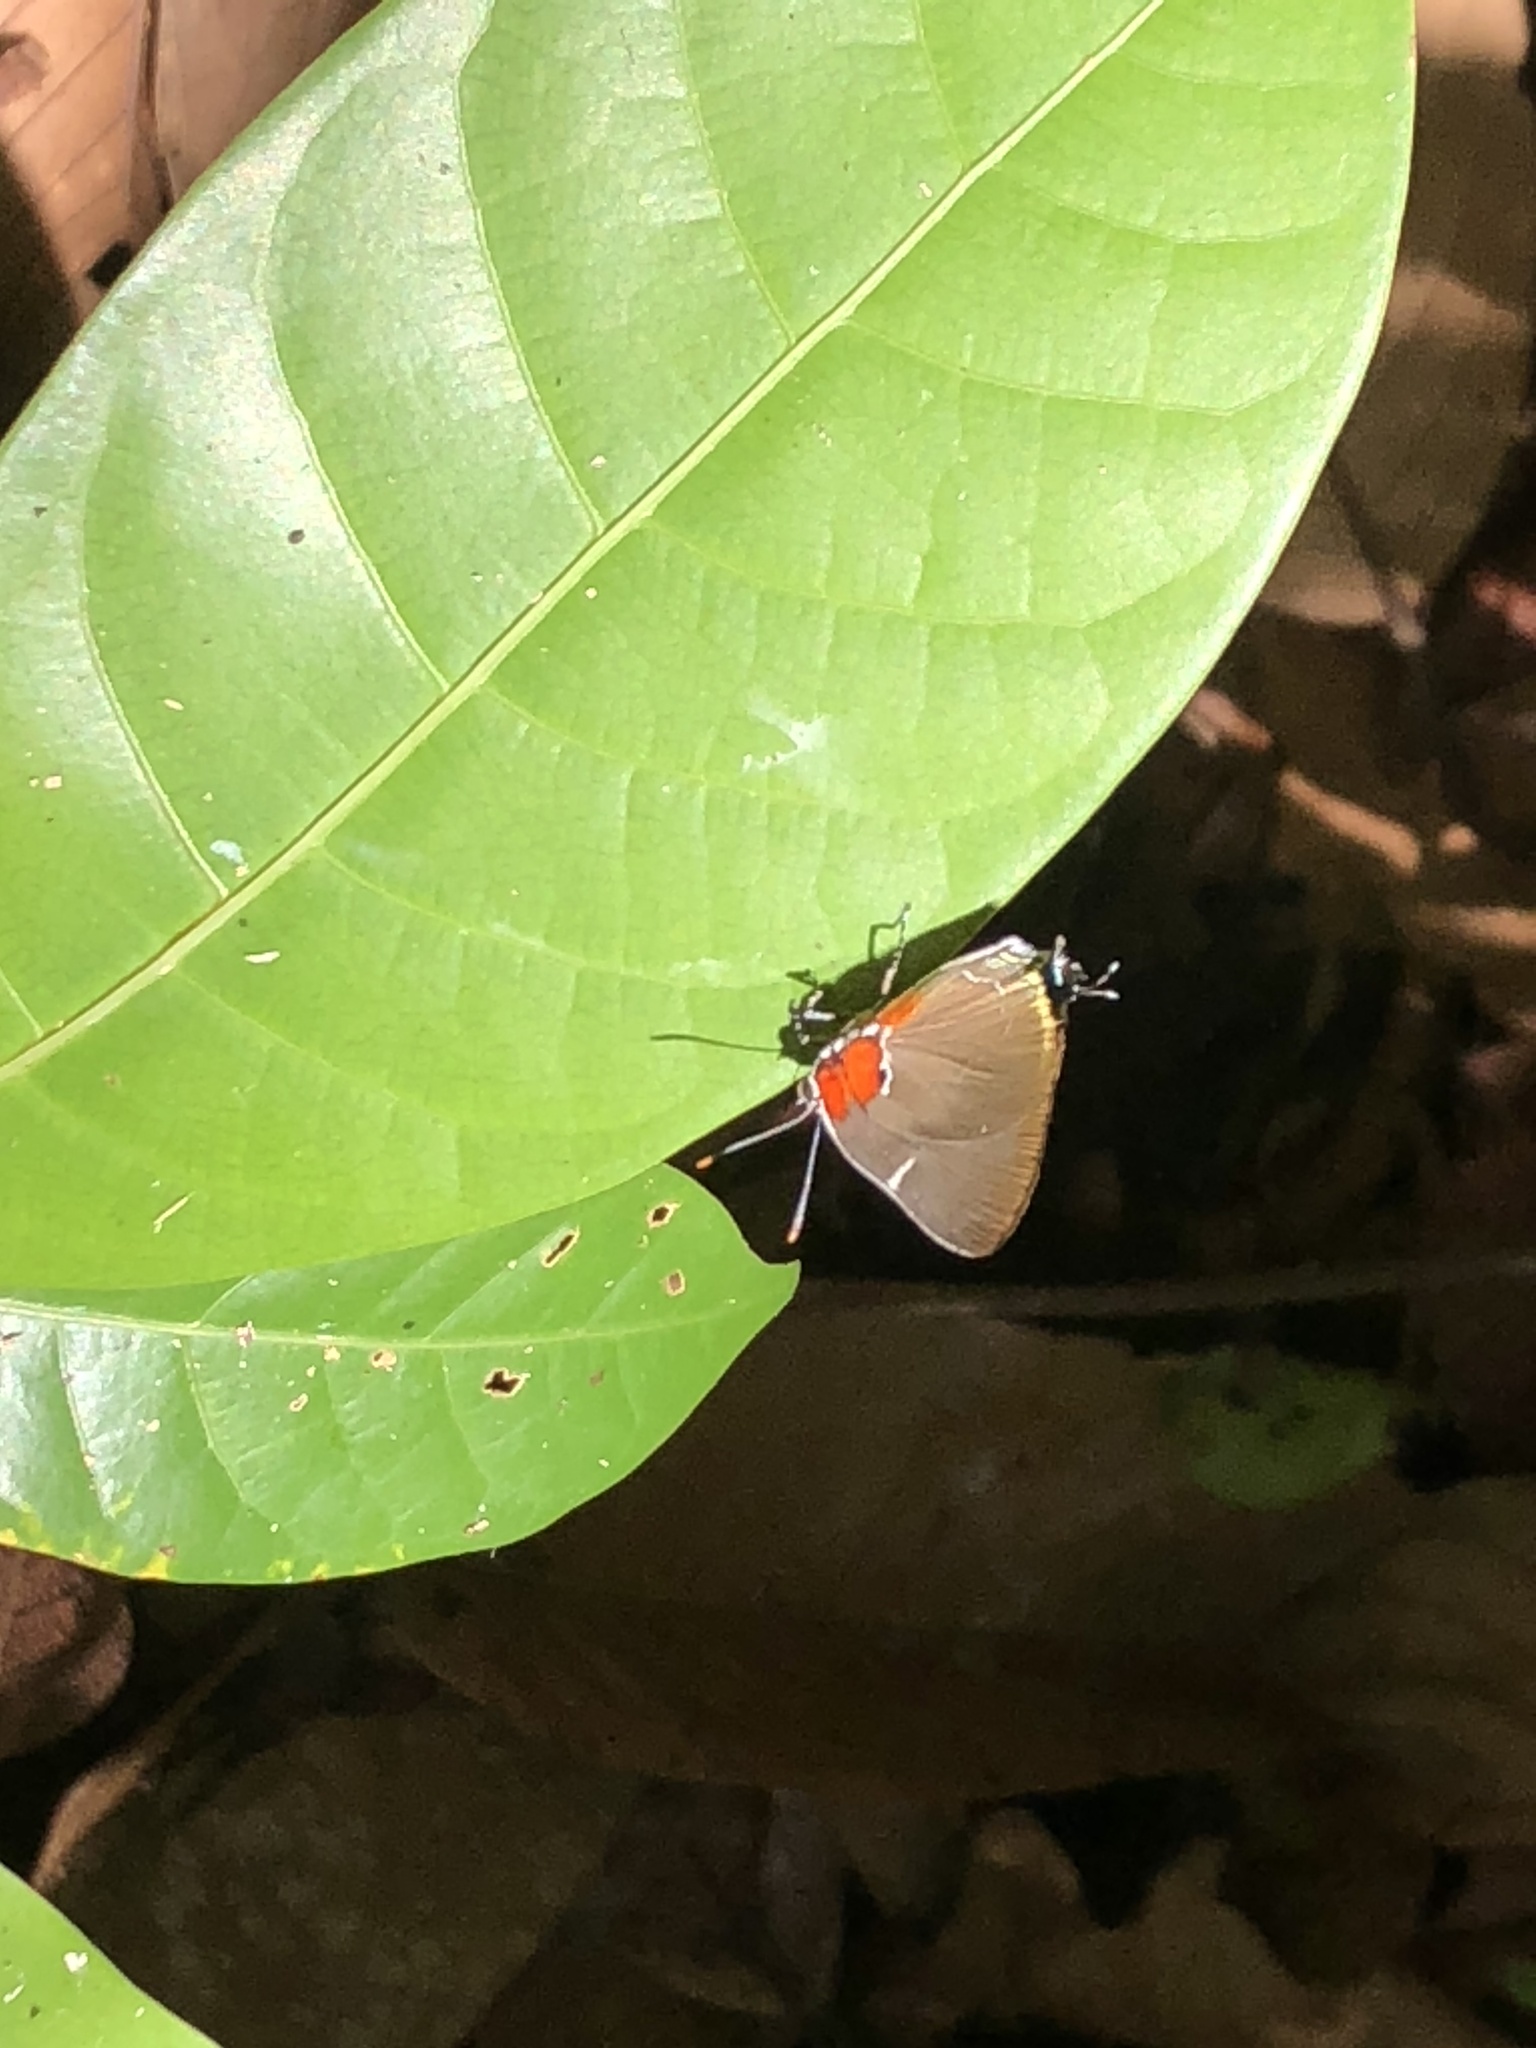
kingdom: Animalia
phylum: Arthropoda
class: Insecta
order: Lepidoptera
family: Lycaenidae
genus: Porthecla
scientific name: Porthecla
